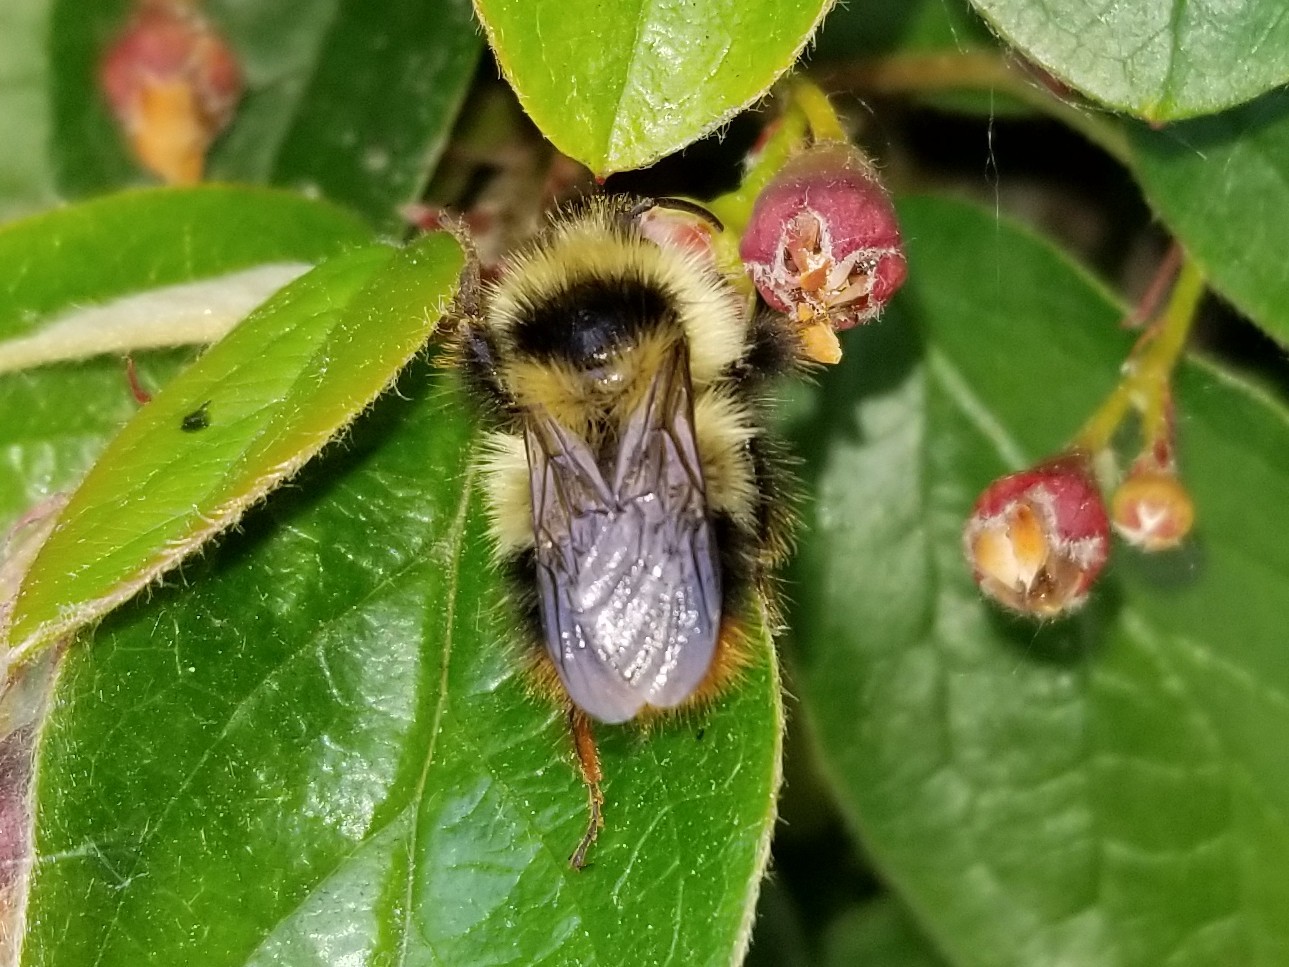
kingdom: Animalia
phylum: Arthropoda
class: Insecta
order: Hymenoptera
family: Apidae
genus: Bombus
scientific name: Bombus frigidus
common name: Frigid bumble bee
